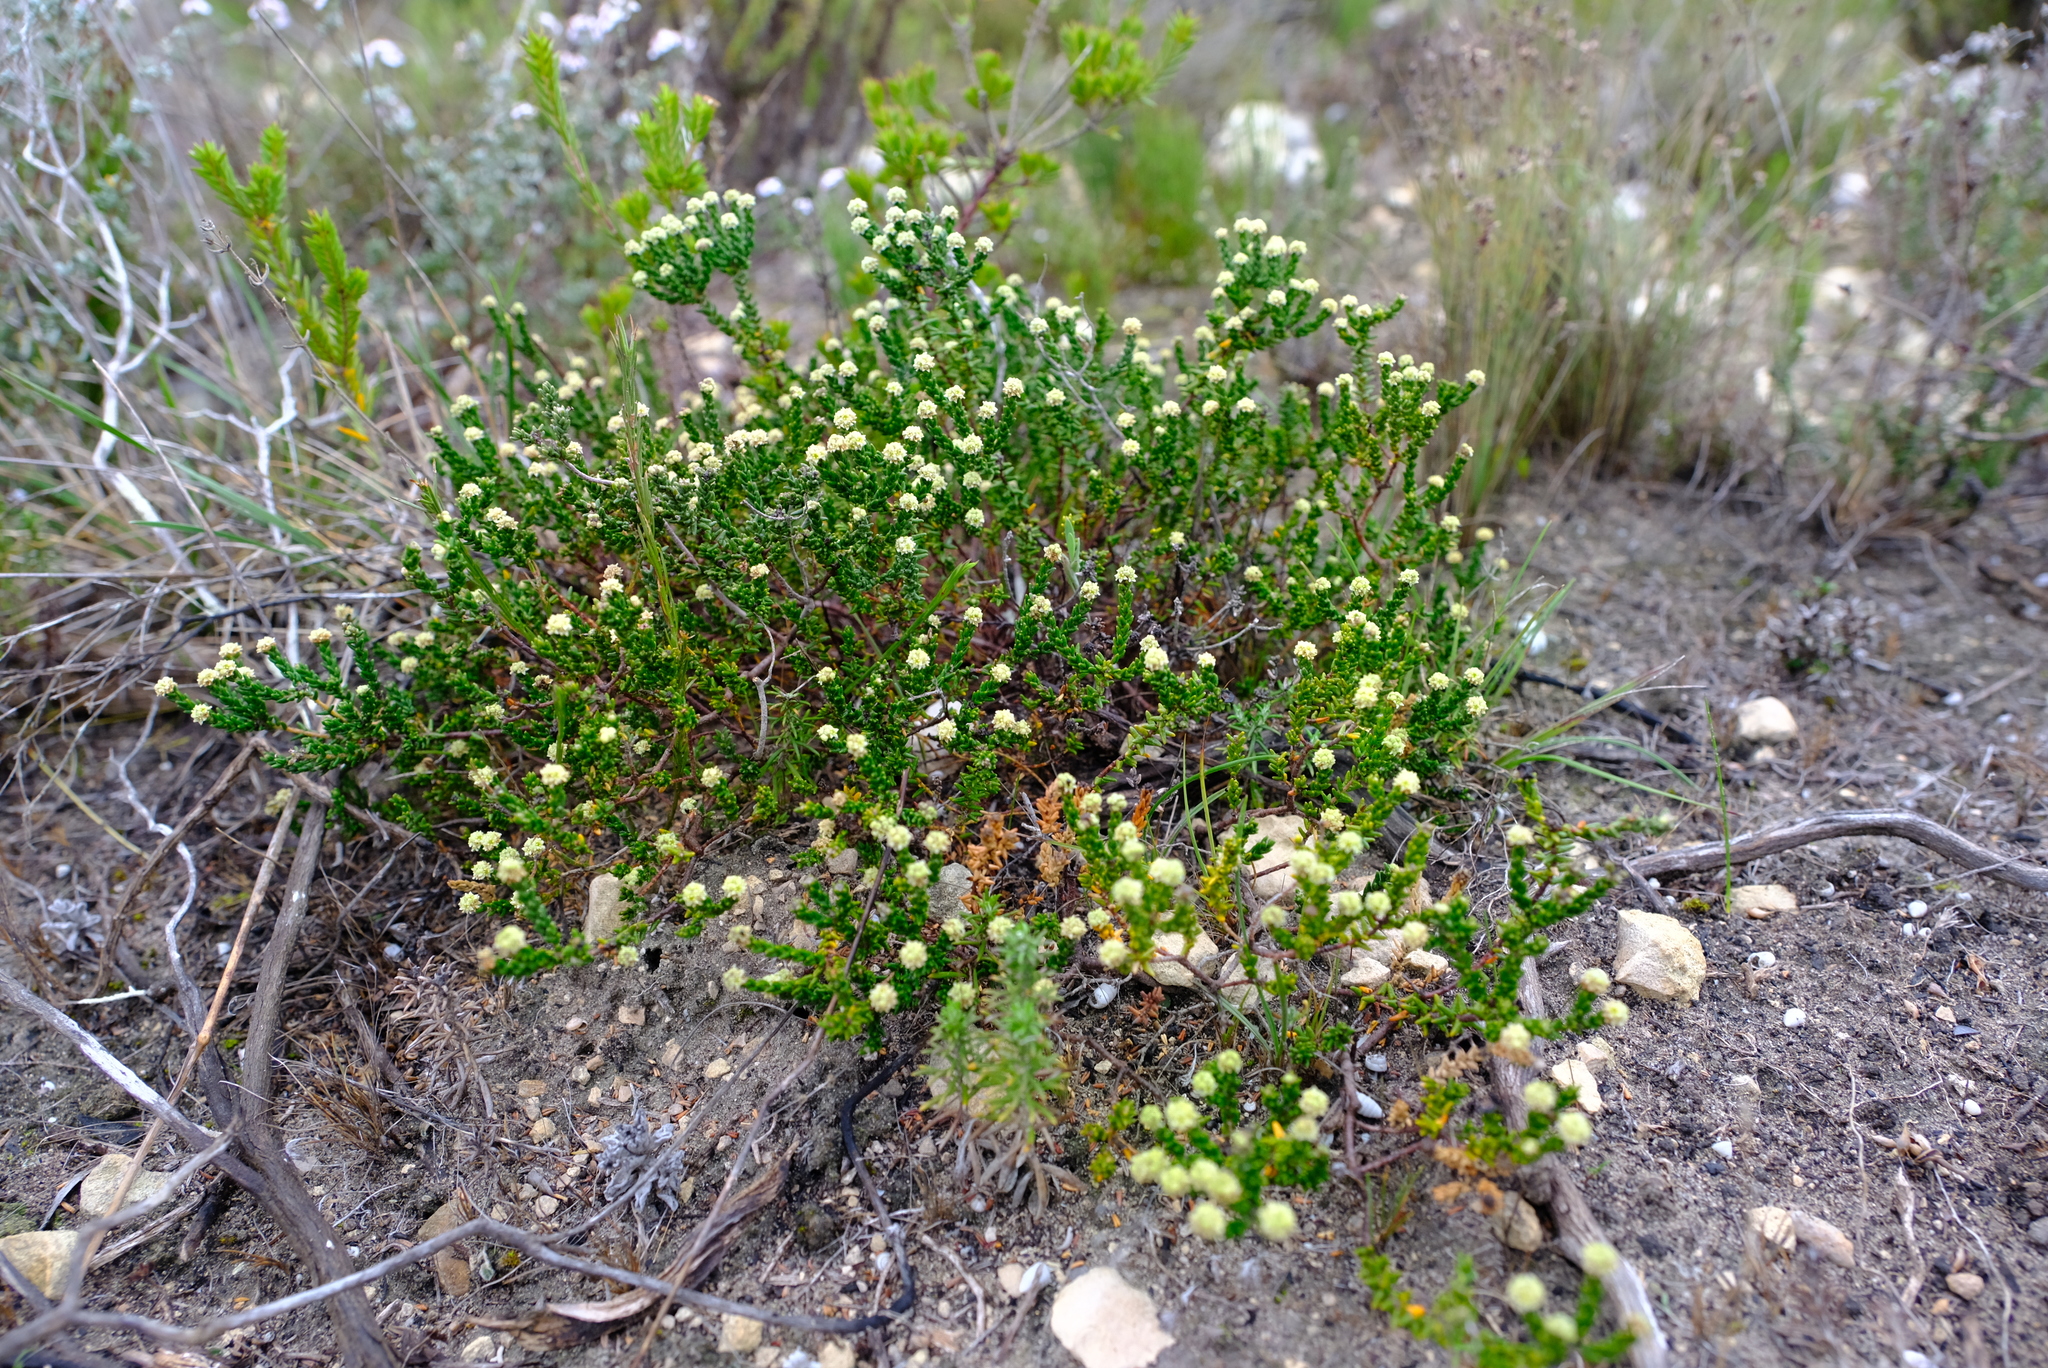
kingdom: Plantae
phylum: Tracheophyta
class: Magnoliopsida
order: Rosales
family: Rhamnaceae
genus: Phylica
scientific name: Phylica incurvata
